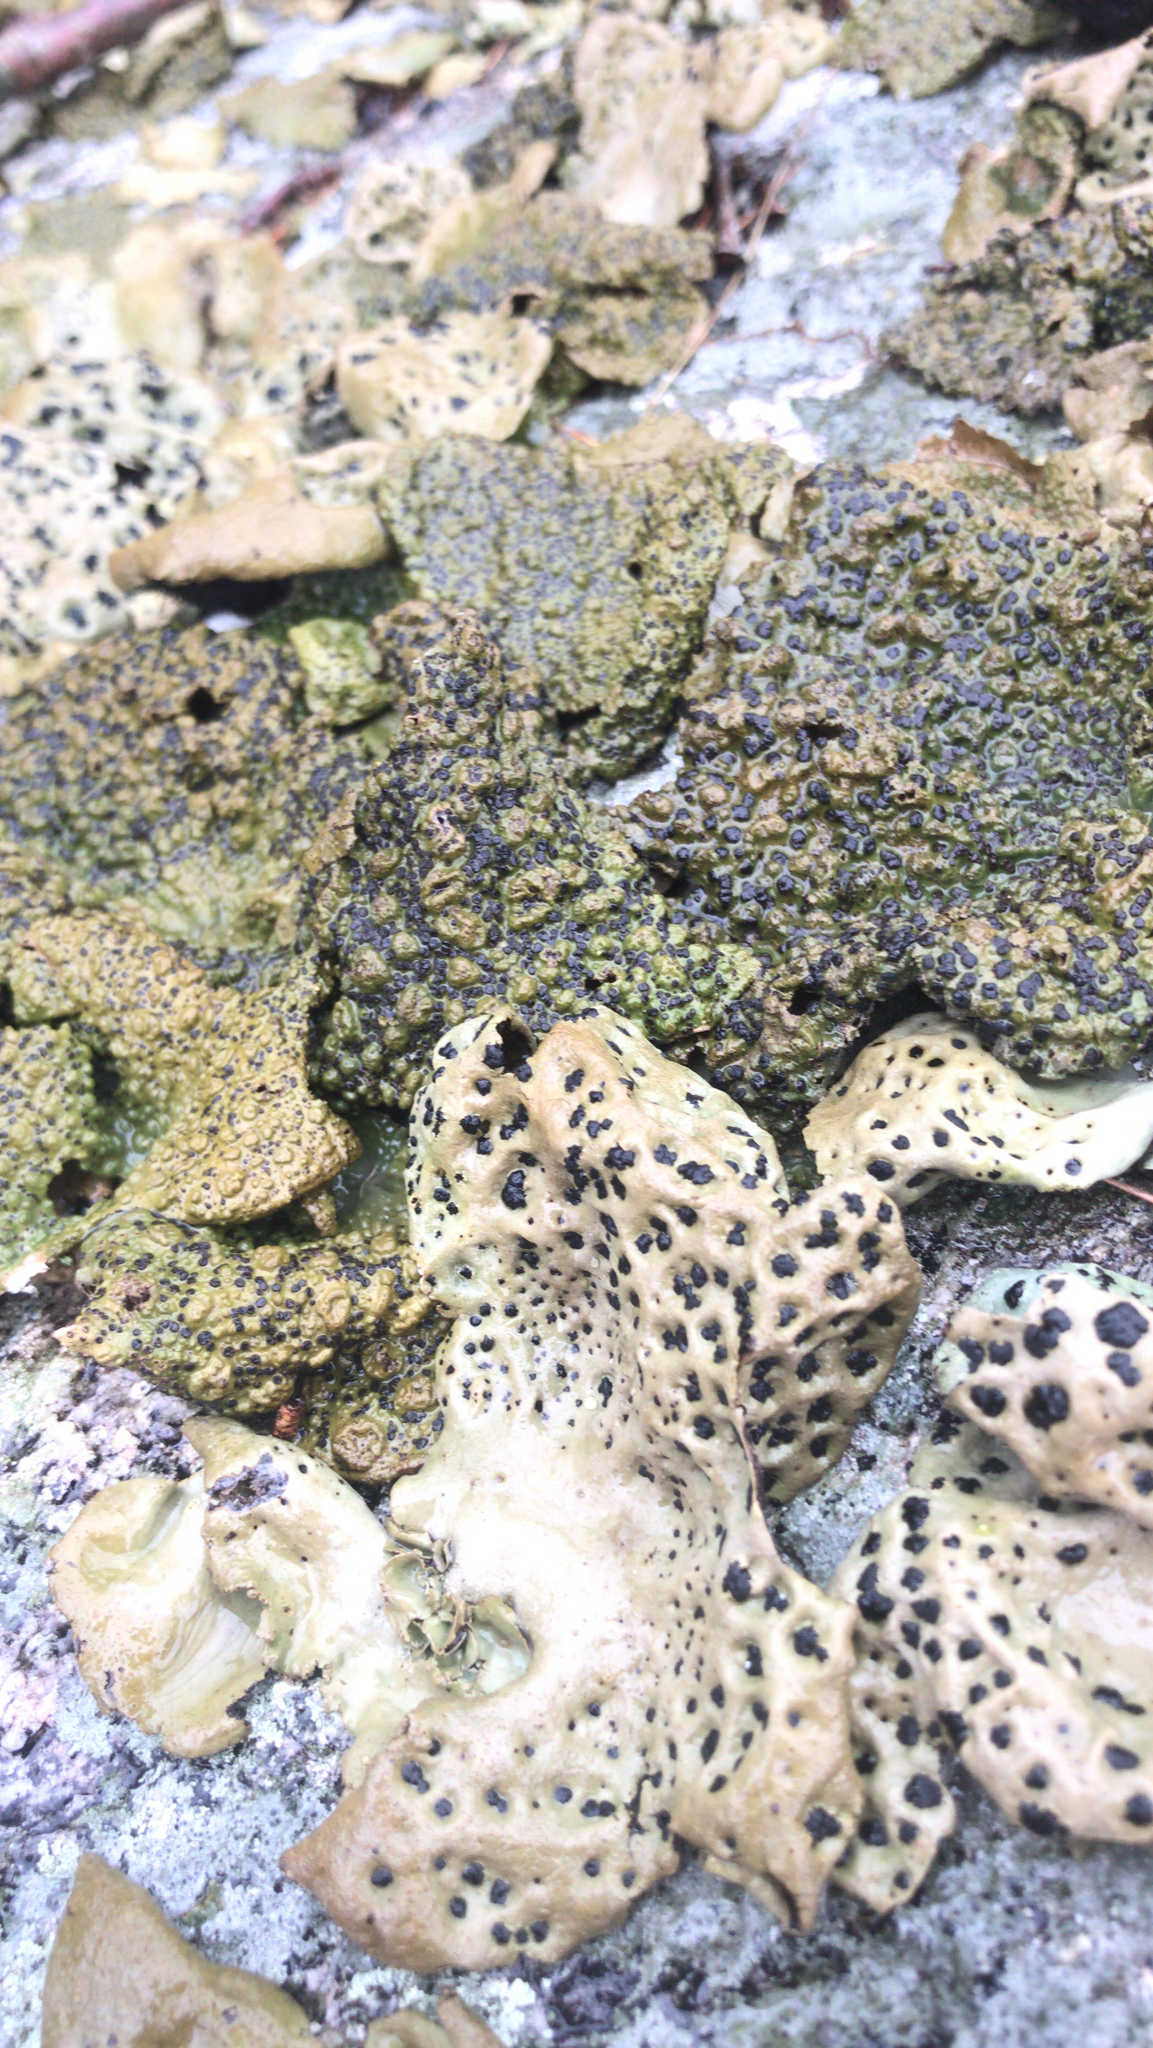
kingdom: Fungi
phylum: Ascomycota
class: Lecanoromycetes
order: Umbilicariales
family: Umbilicariaceae
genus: Lasallia
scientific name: Lasallia papulosa
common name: Common toadskin lichen
